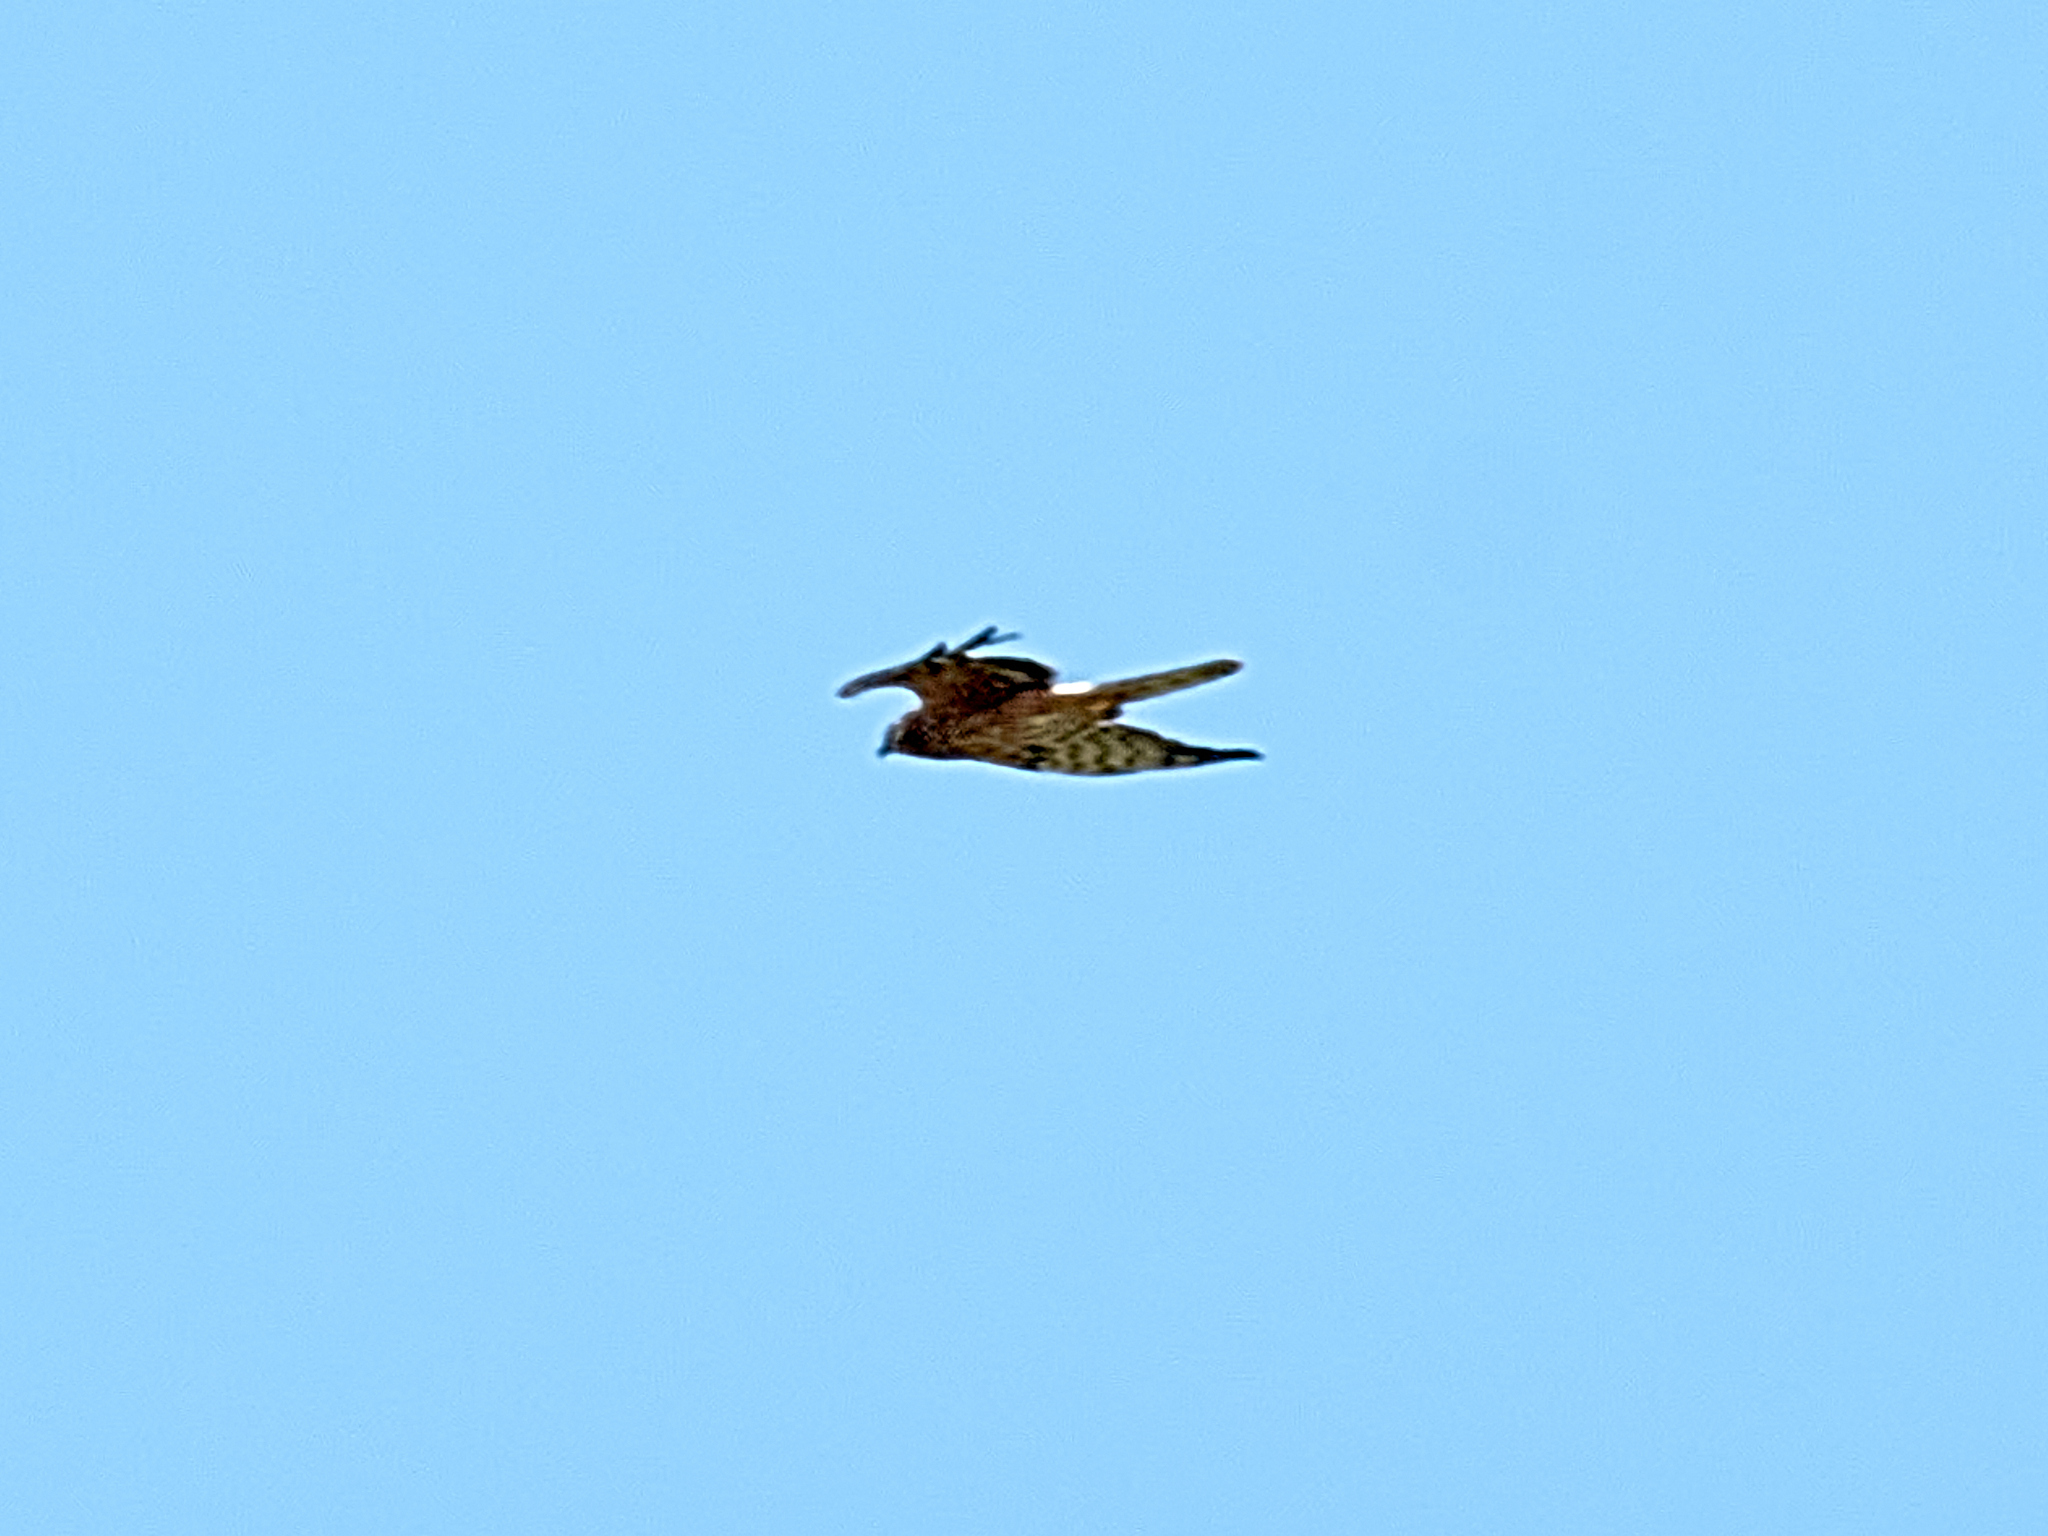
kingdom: Animalia
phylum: Chordata
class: Aves
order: Accipitriformes
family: Accipitridae
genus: Circus
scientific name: Circus pygargus
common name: Montagu's harrier
